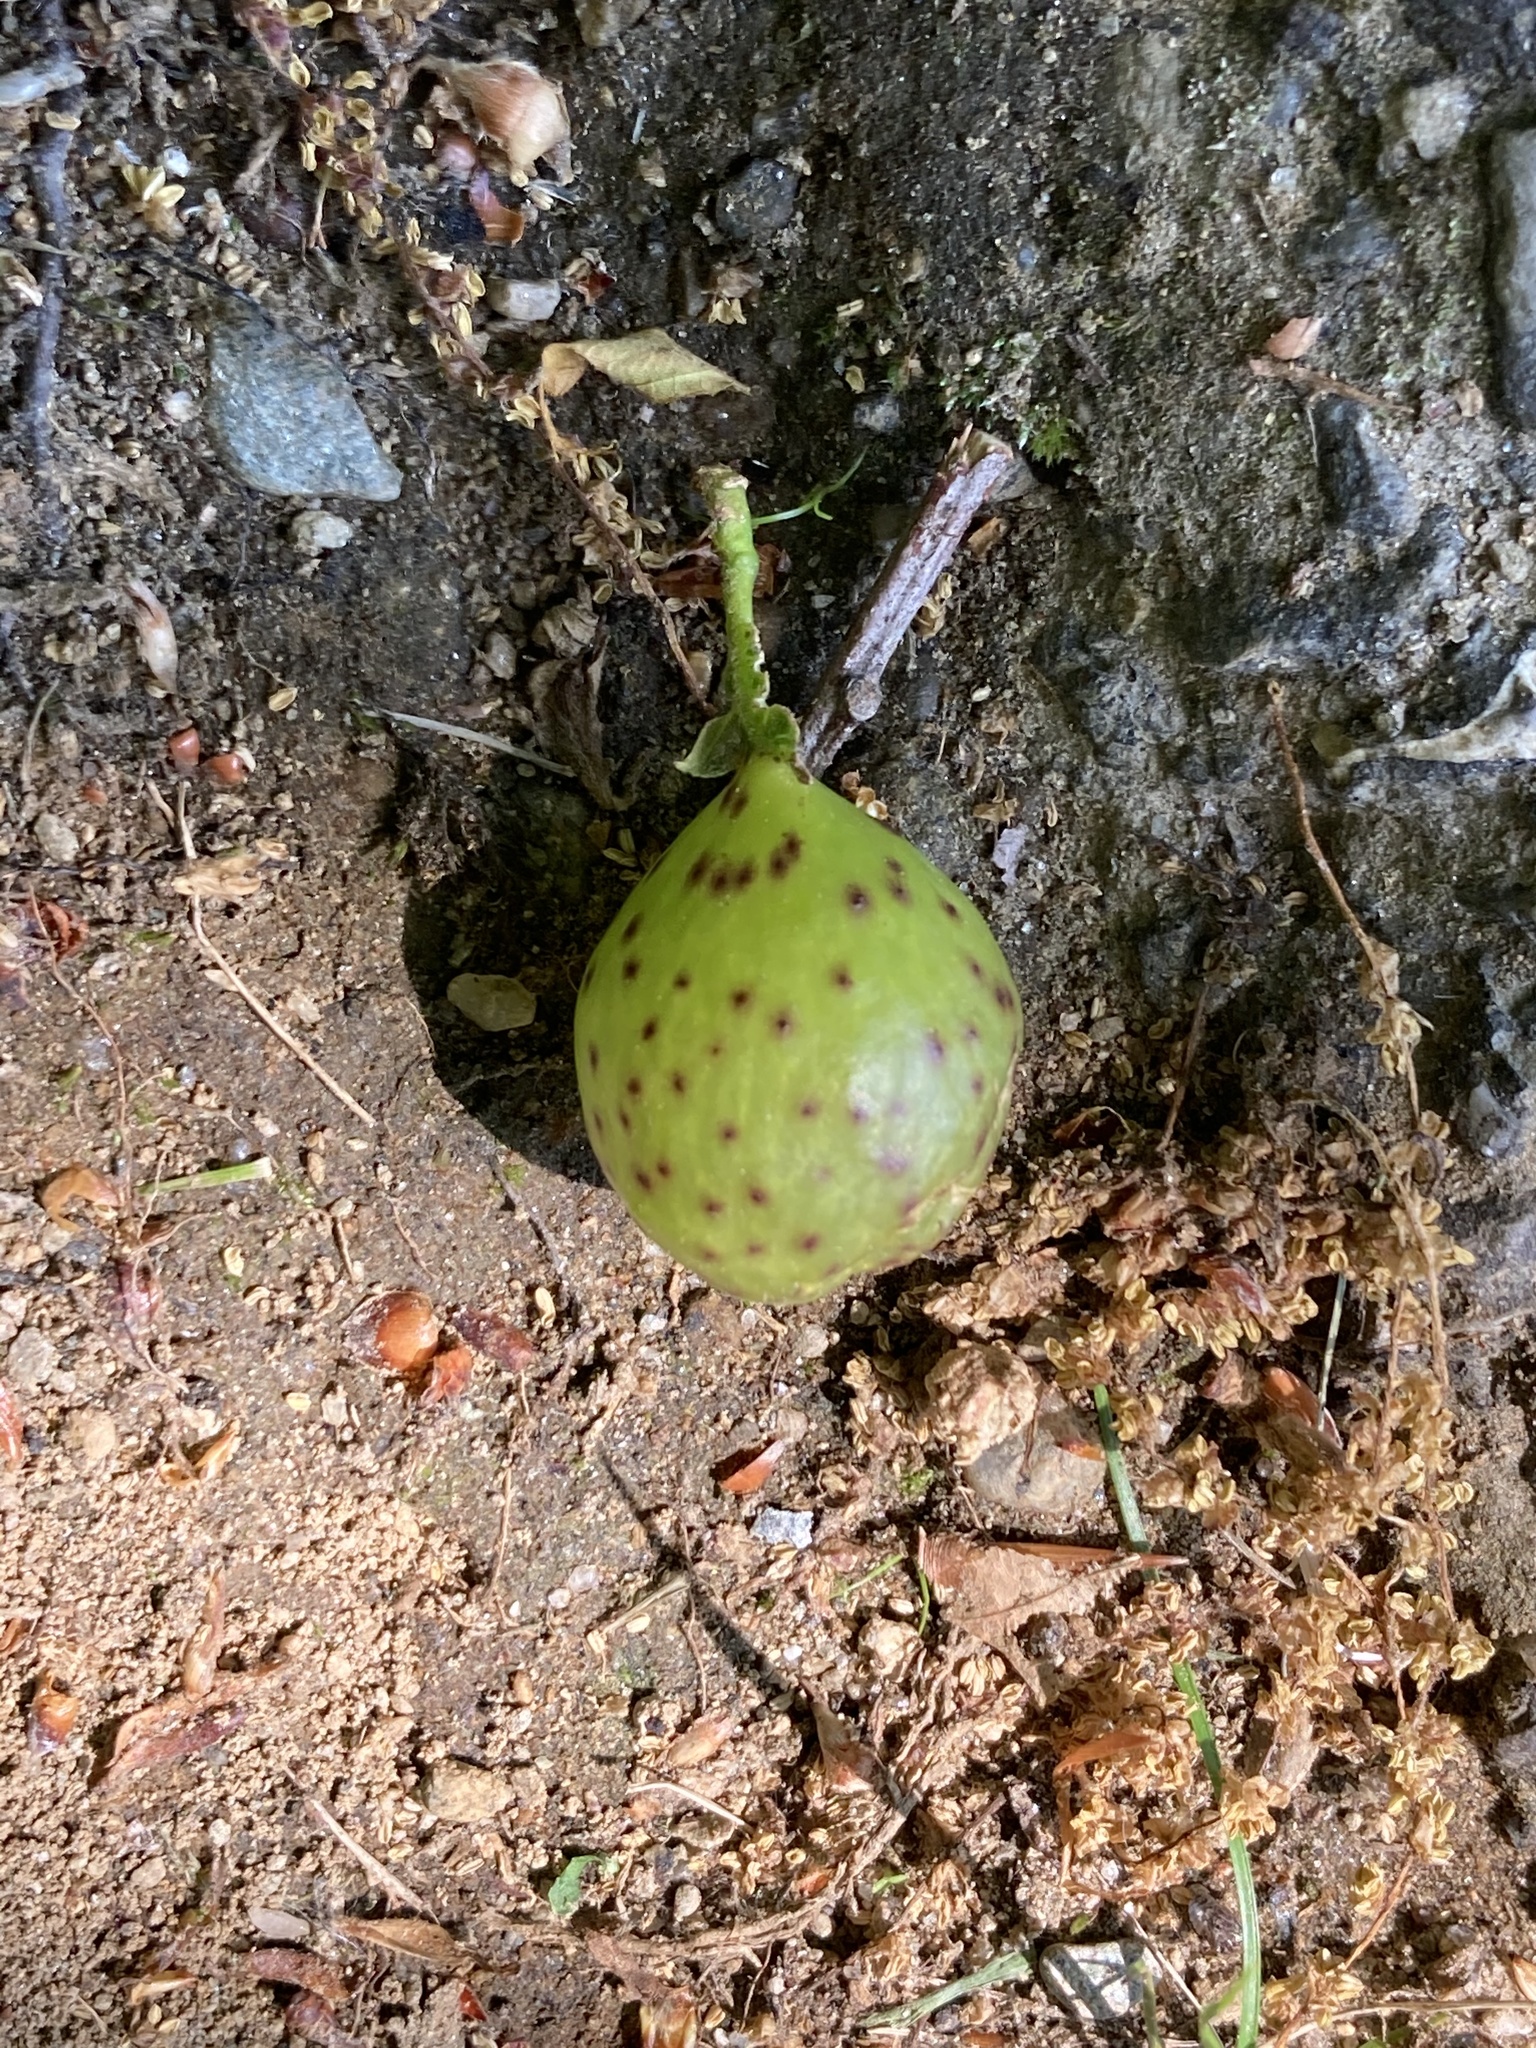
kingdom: Animalia
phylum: Arthropoda
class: Insecta
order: Hymenoptera
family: Cynipidae
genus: Amphibolips
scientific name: Amphibolips
